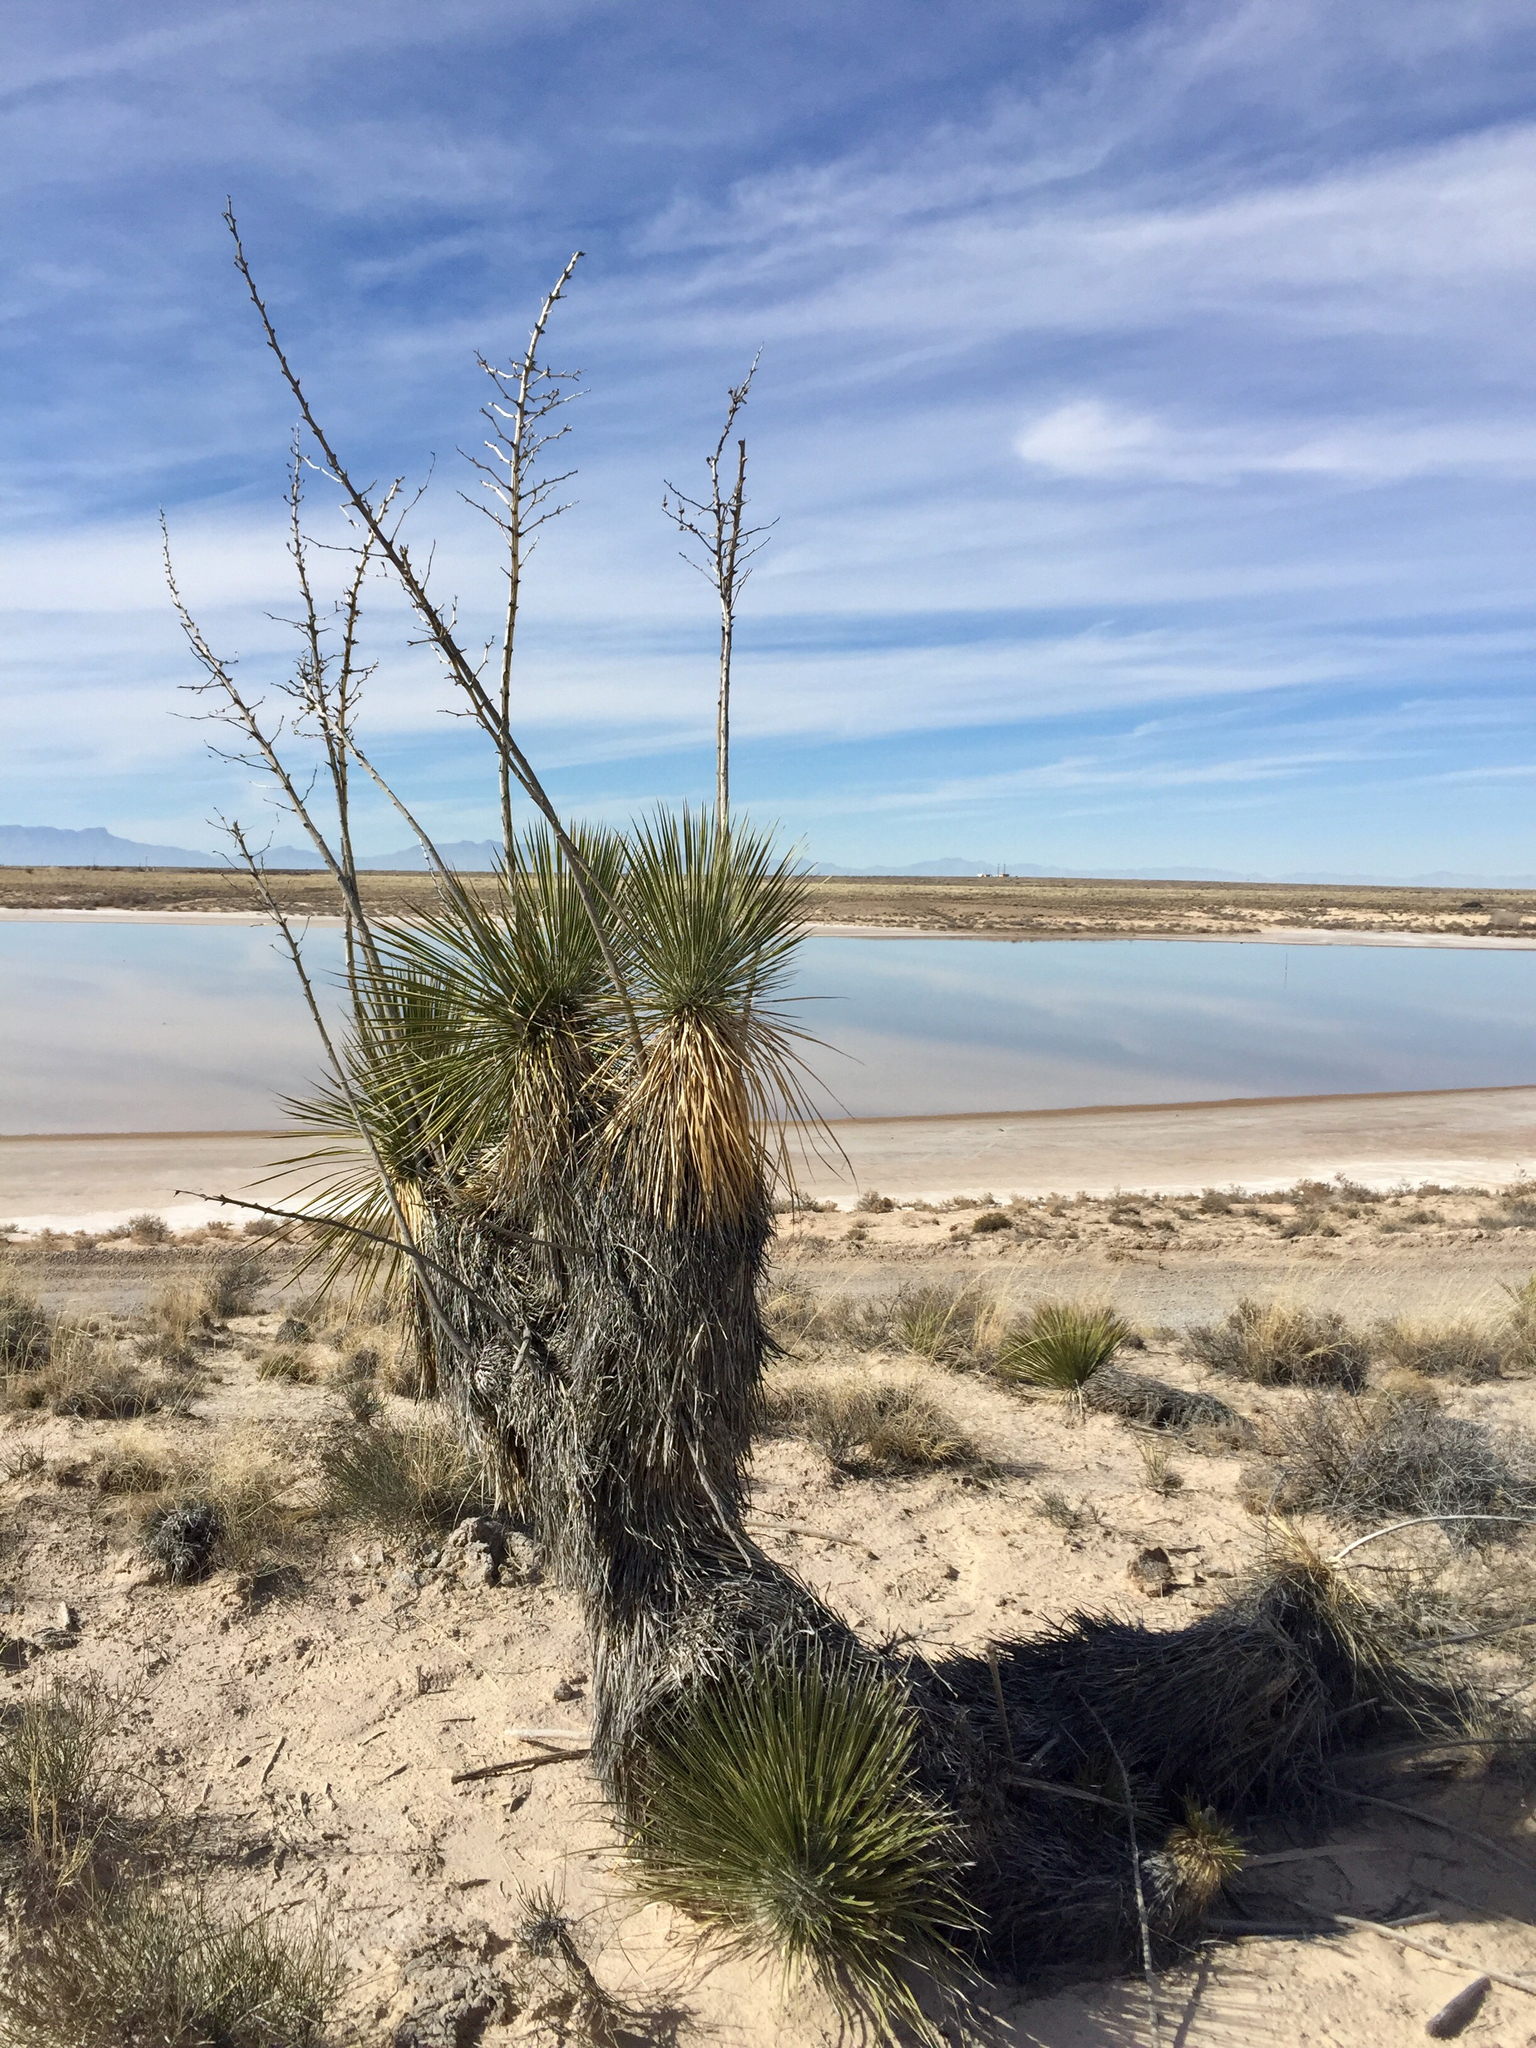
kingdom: Plantae
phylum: Tracheophyta
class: Liliopsida
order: Asparagales
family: Asparagaceae
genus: Yucca
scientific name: Yucca elata
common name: Palmella
